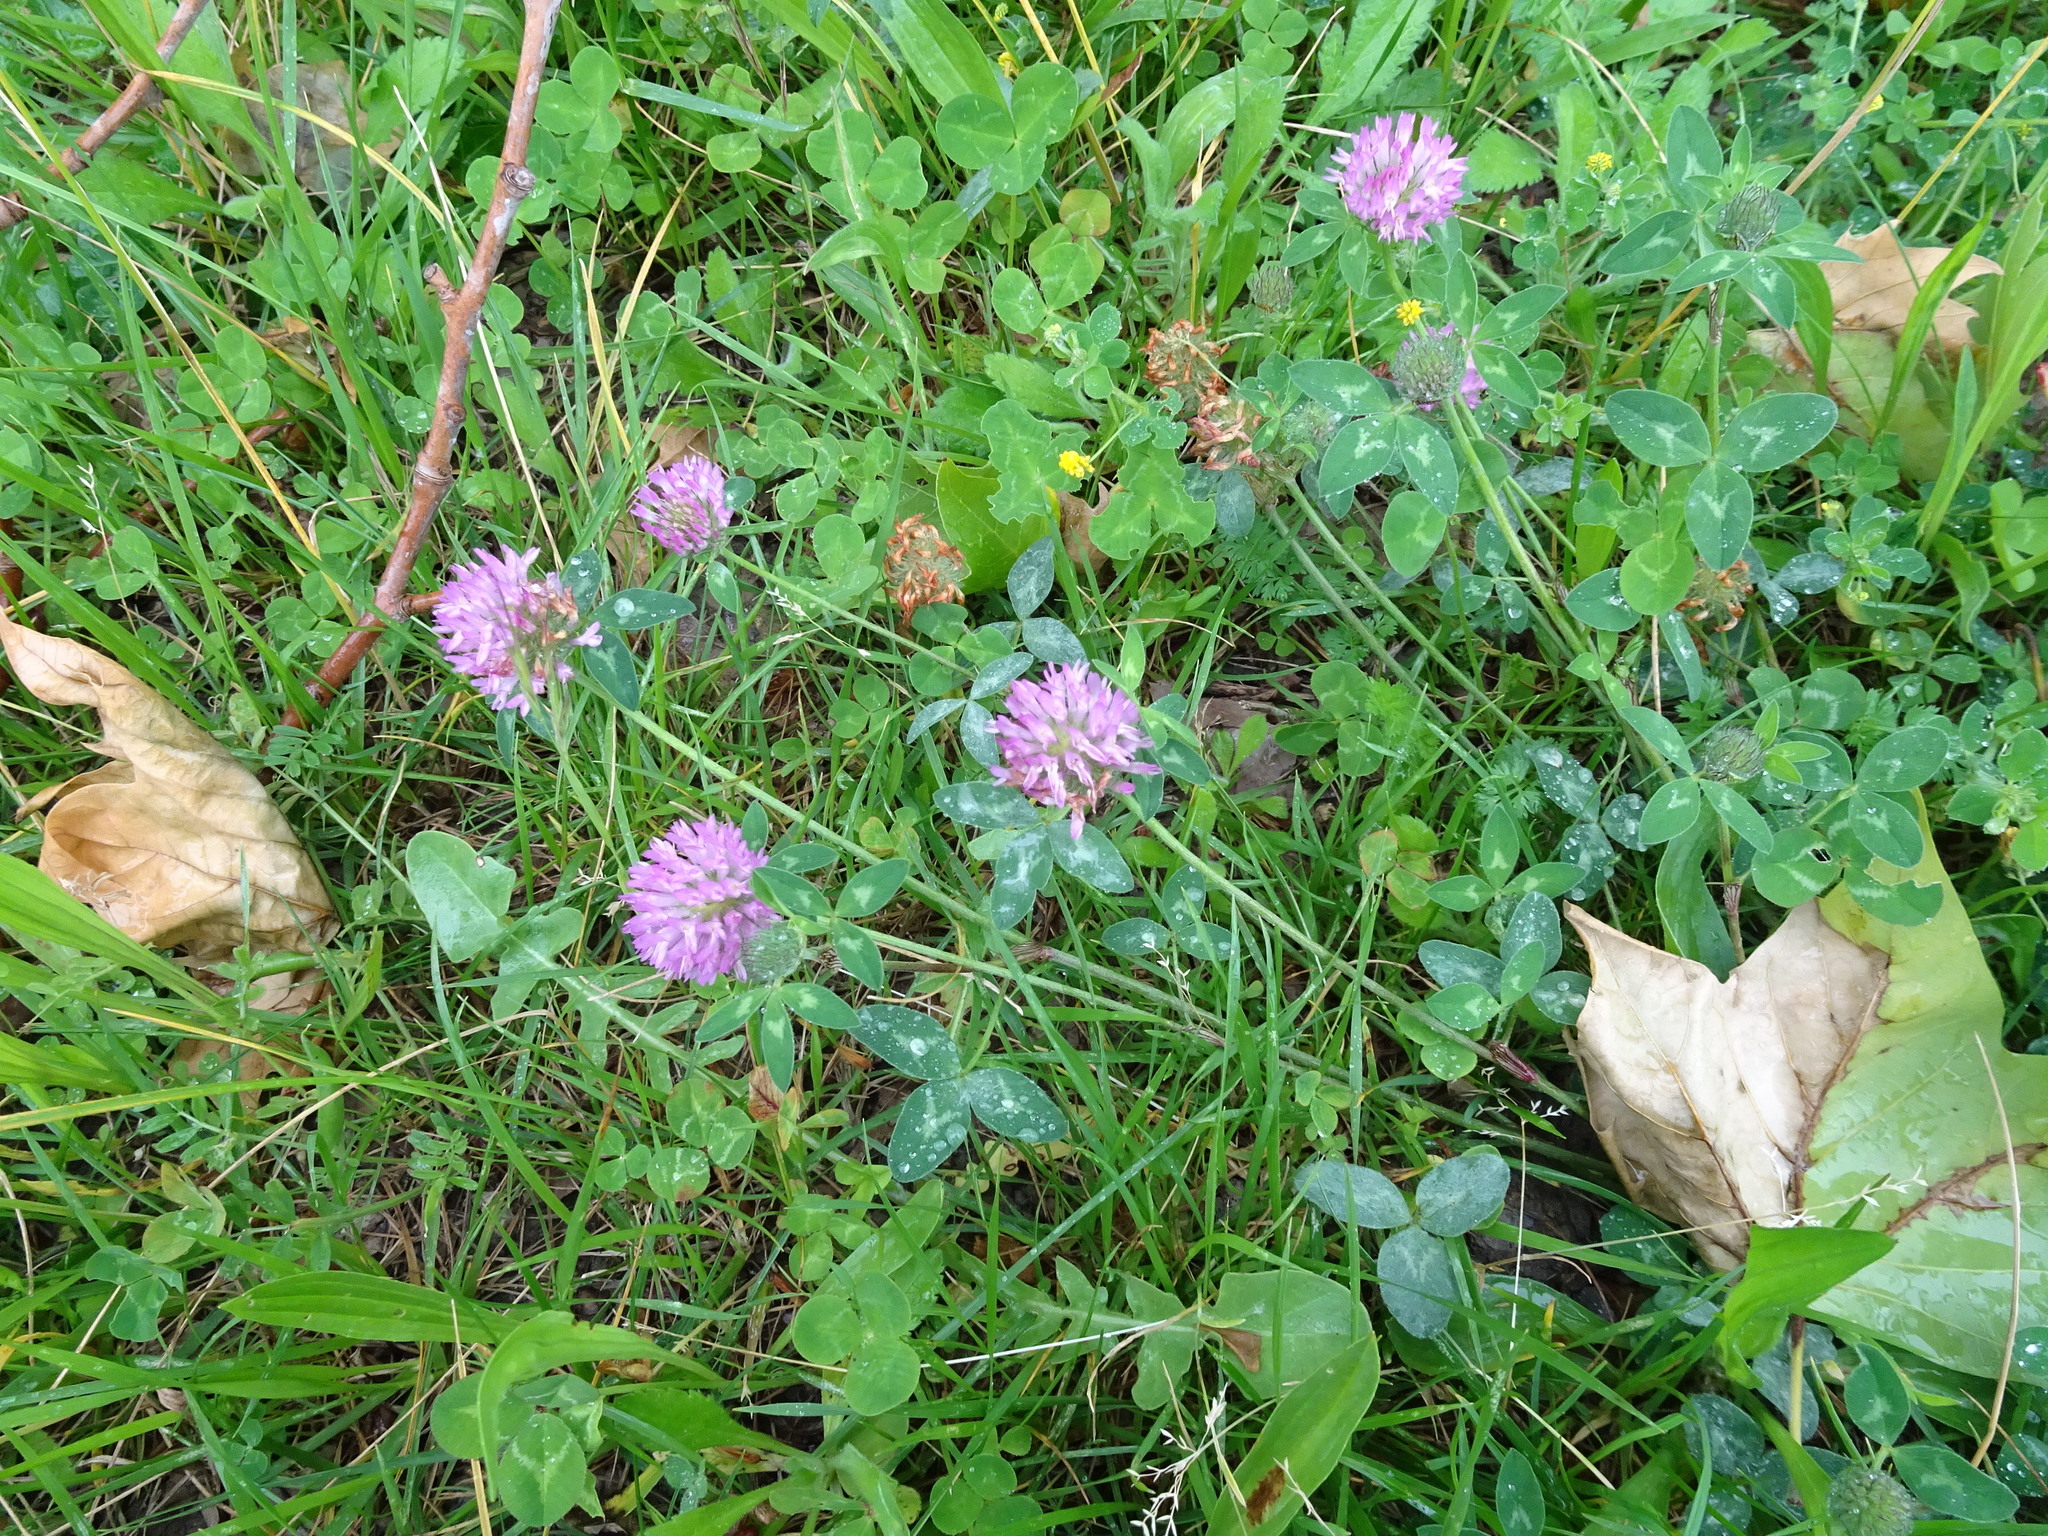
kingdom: Plantae
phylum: Tracheophyta
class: Magnoliopsida
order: Fabales
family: Fabaceae
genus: Trifolium
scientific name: Trifolium pratense
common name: Red clover
